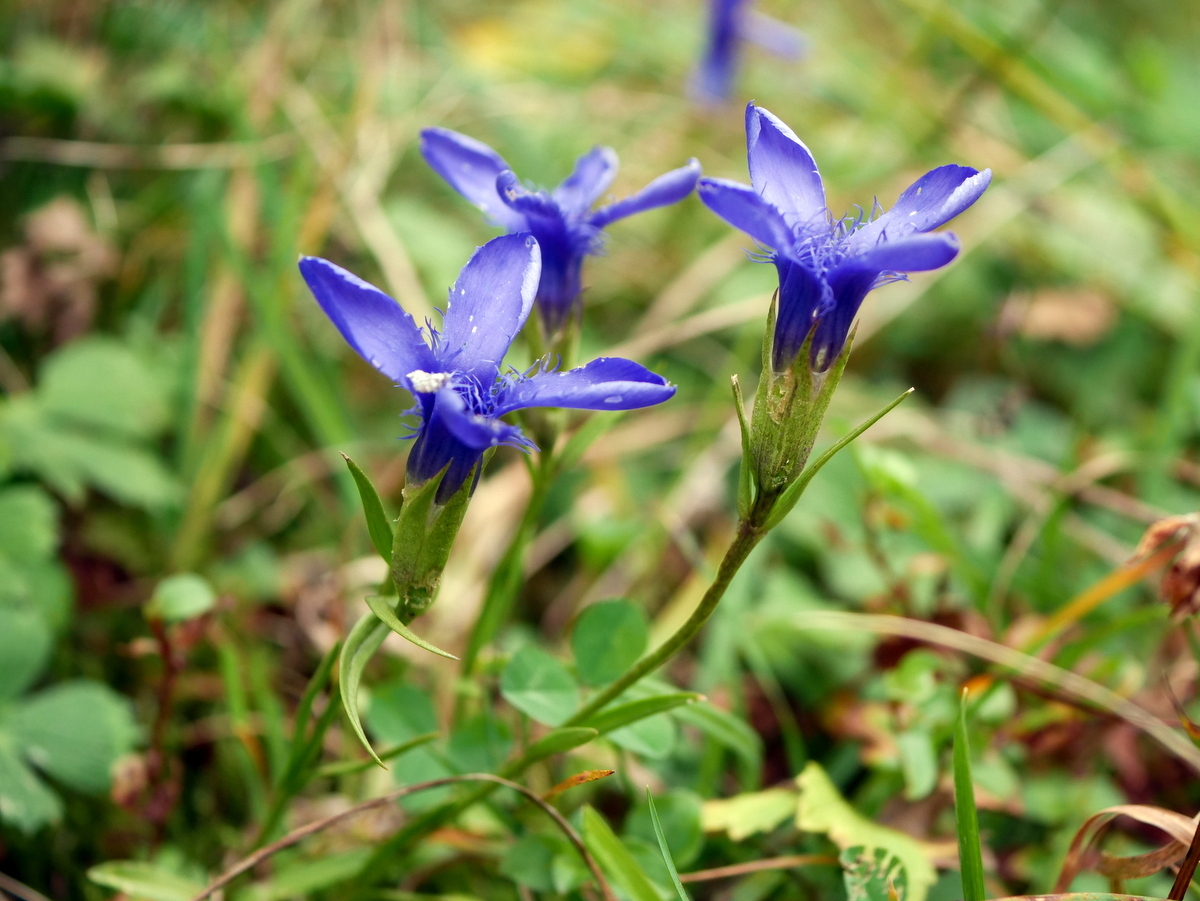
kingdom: Plantae
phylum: Tracheophyta
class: Magnoliopsida
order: Gentianales
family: Gentianaceae
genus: Gentianopsis
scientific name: Gentianopsis ciliata
